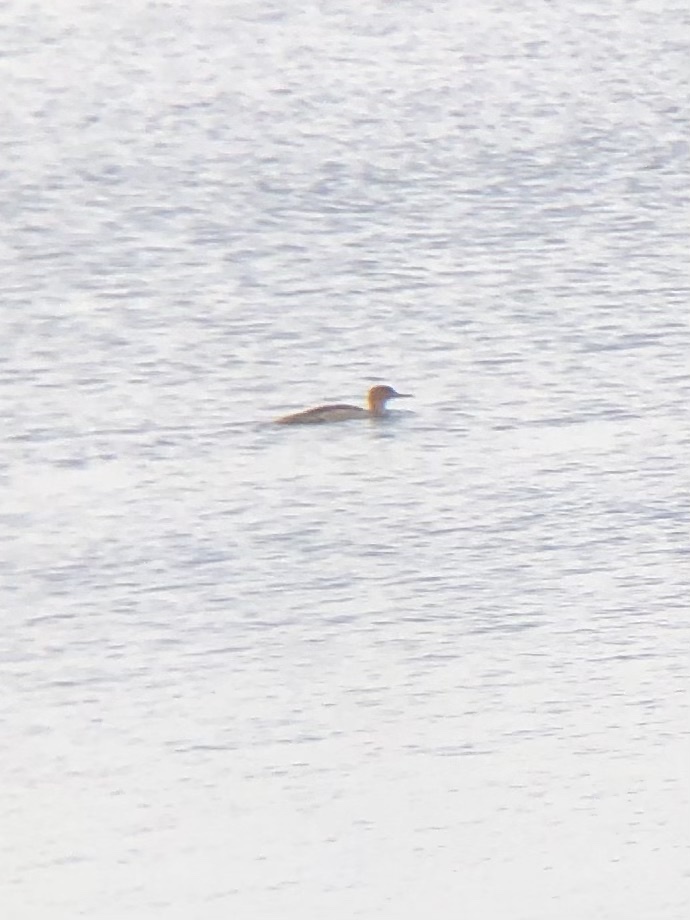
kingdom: Animalia
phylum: Chordata
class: Aves
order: Anseriformes
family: Anatidae
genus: Mergus
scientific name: Mergus serrator
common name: Red-breasted merganser
